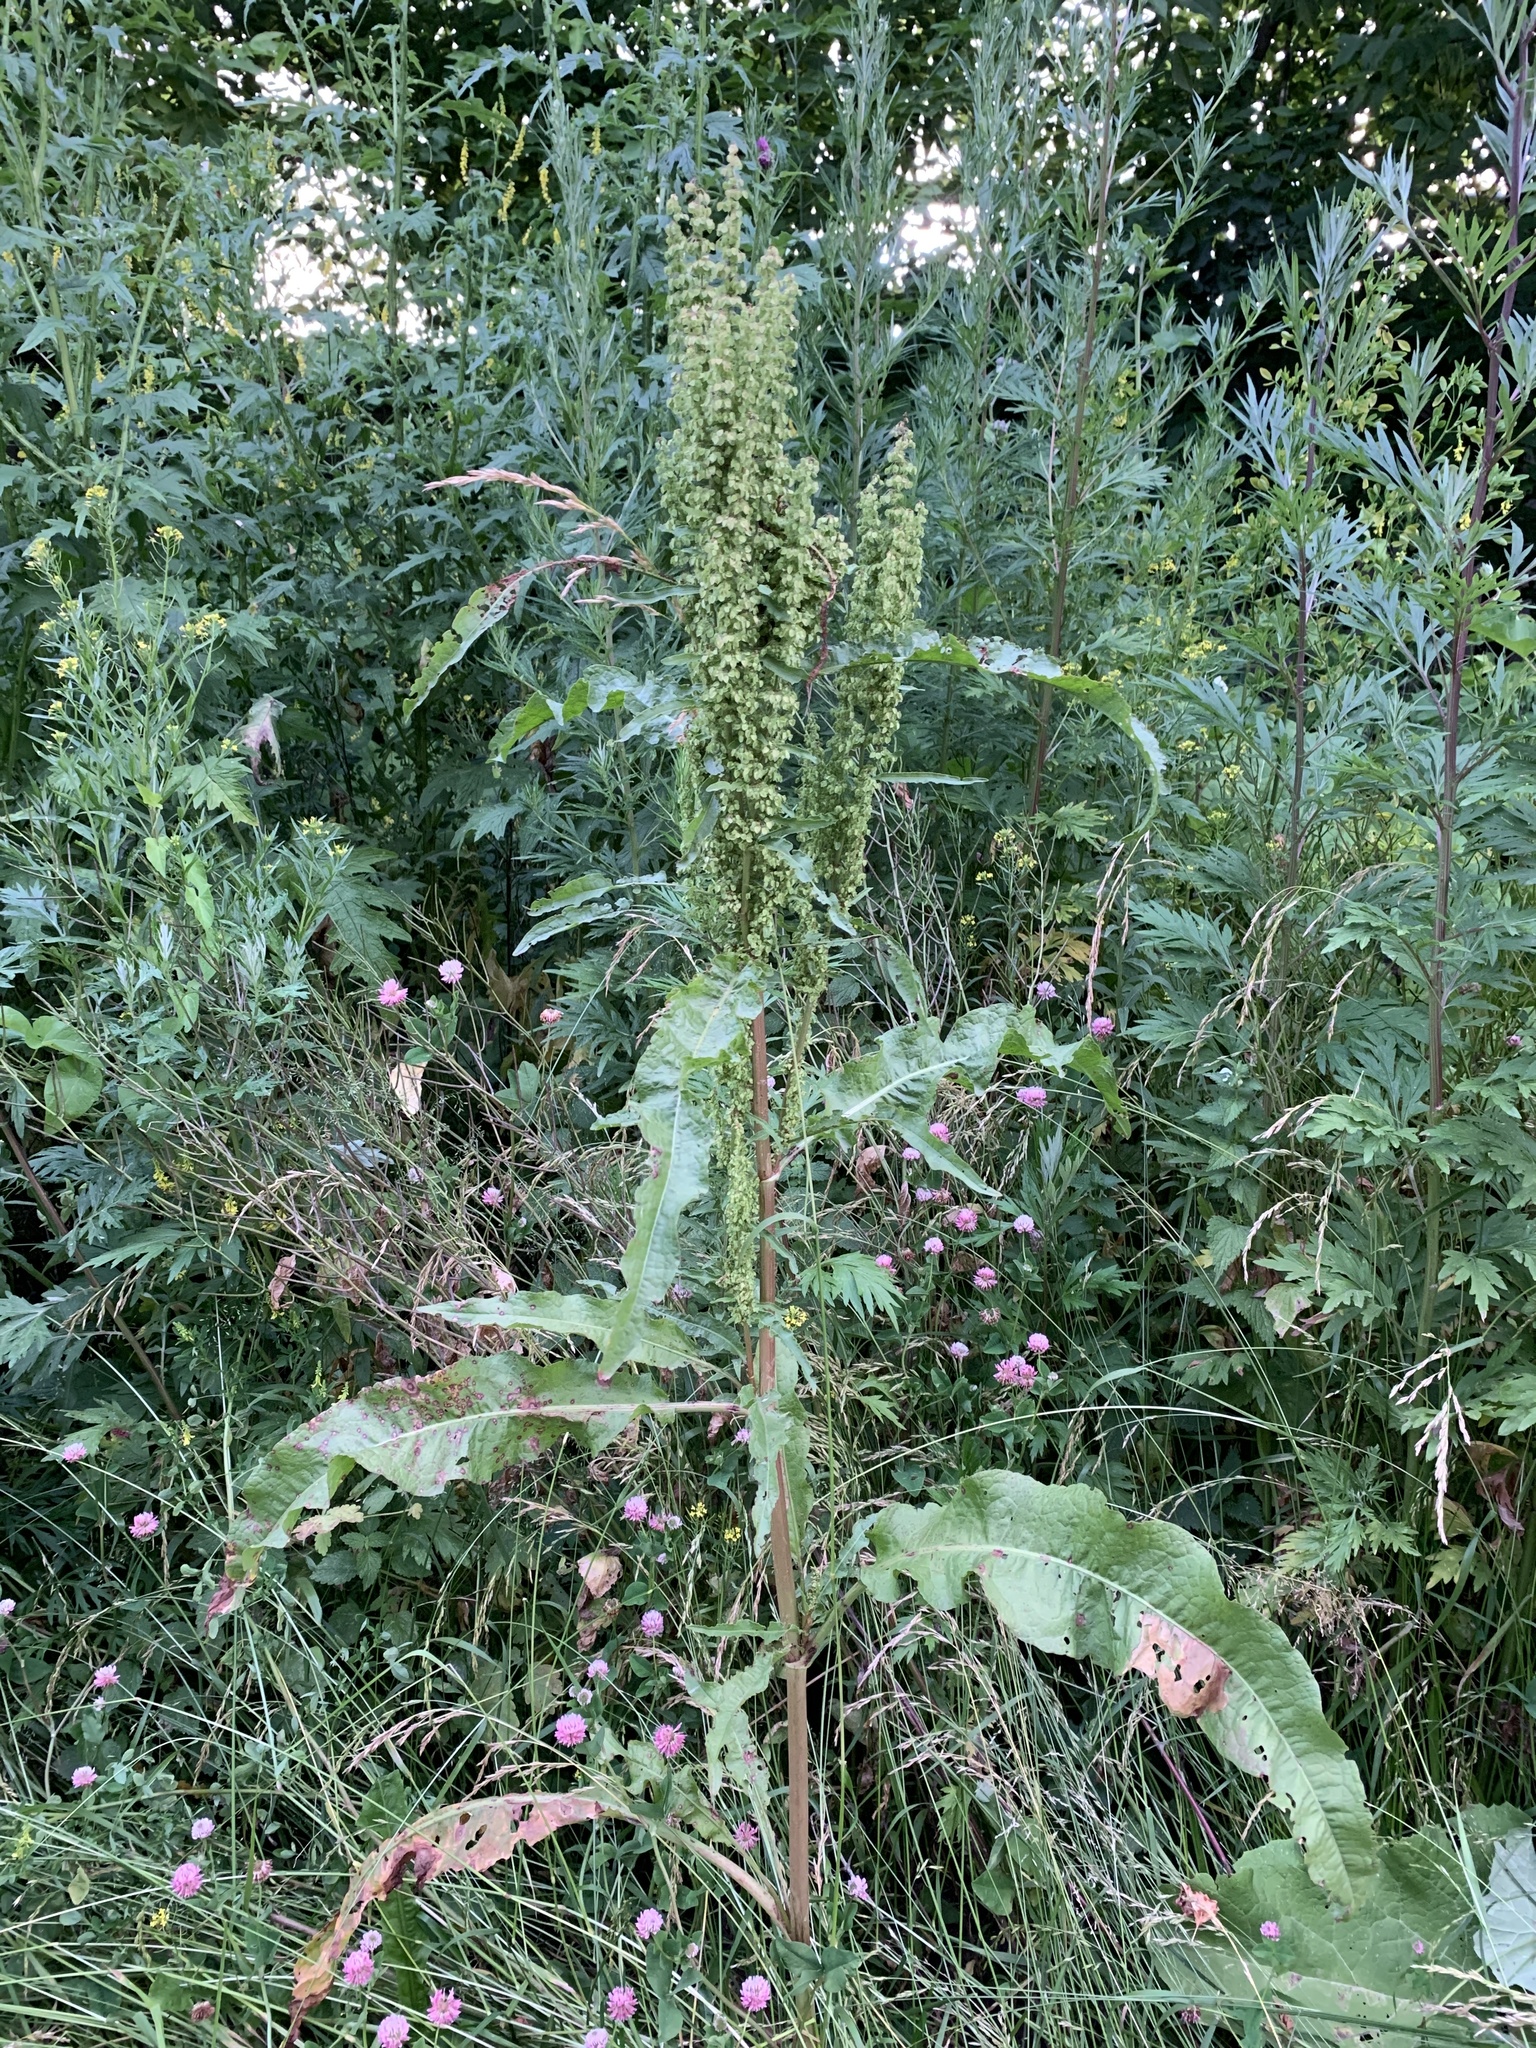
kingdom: Plantae
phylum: Tracheophyta
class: Magnoliopsida
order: Caryophyllales
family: Polygonaceae
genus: Rumex
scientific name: Rumex crispus
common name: Curled dock
